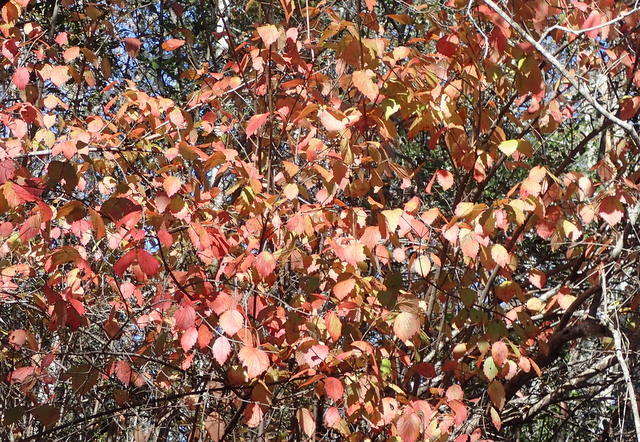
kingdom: Plantae
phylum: Tracheophyta
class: Magnoliopsida
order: Dipsacales
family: Viburnaceae
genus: Viburnum
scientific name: Viburnum scabrellum
